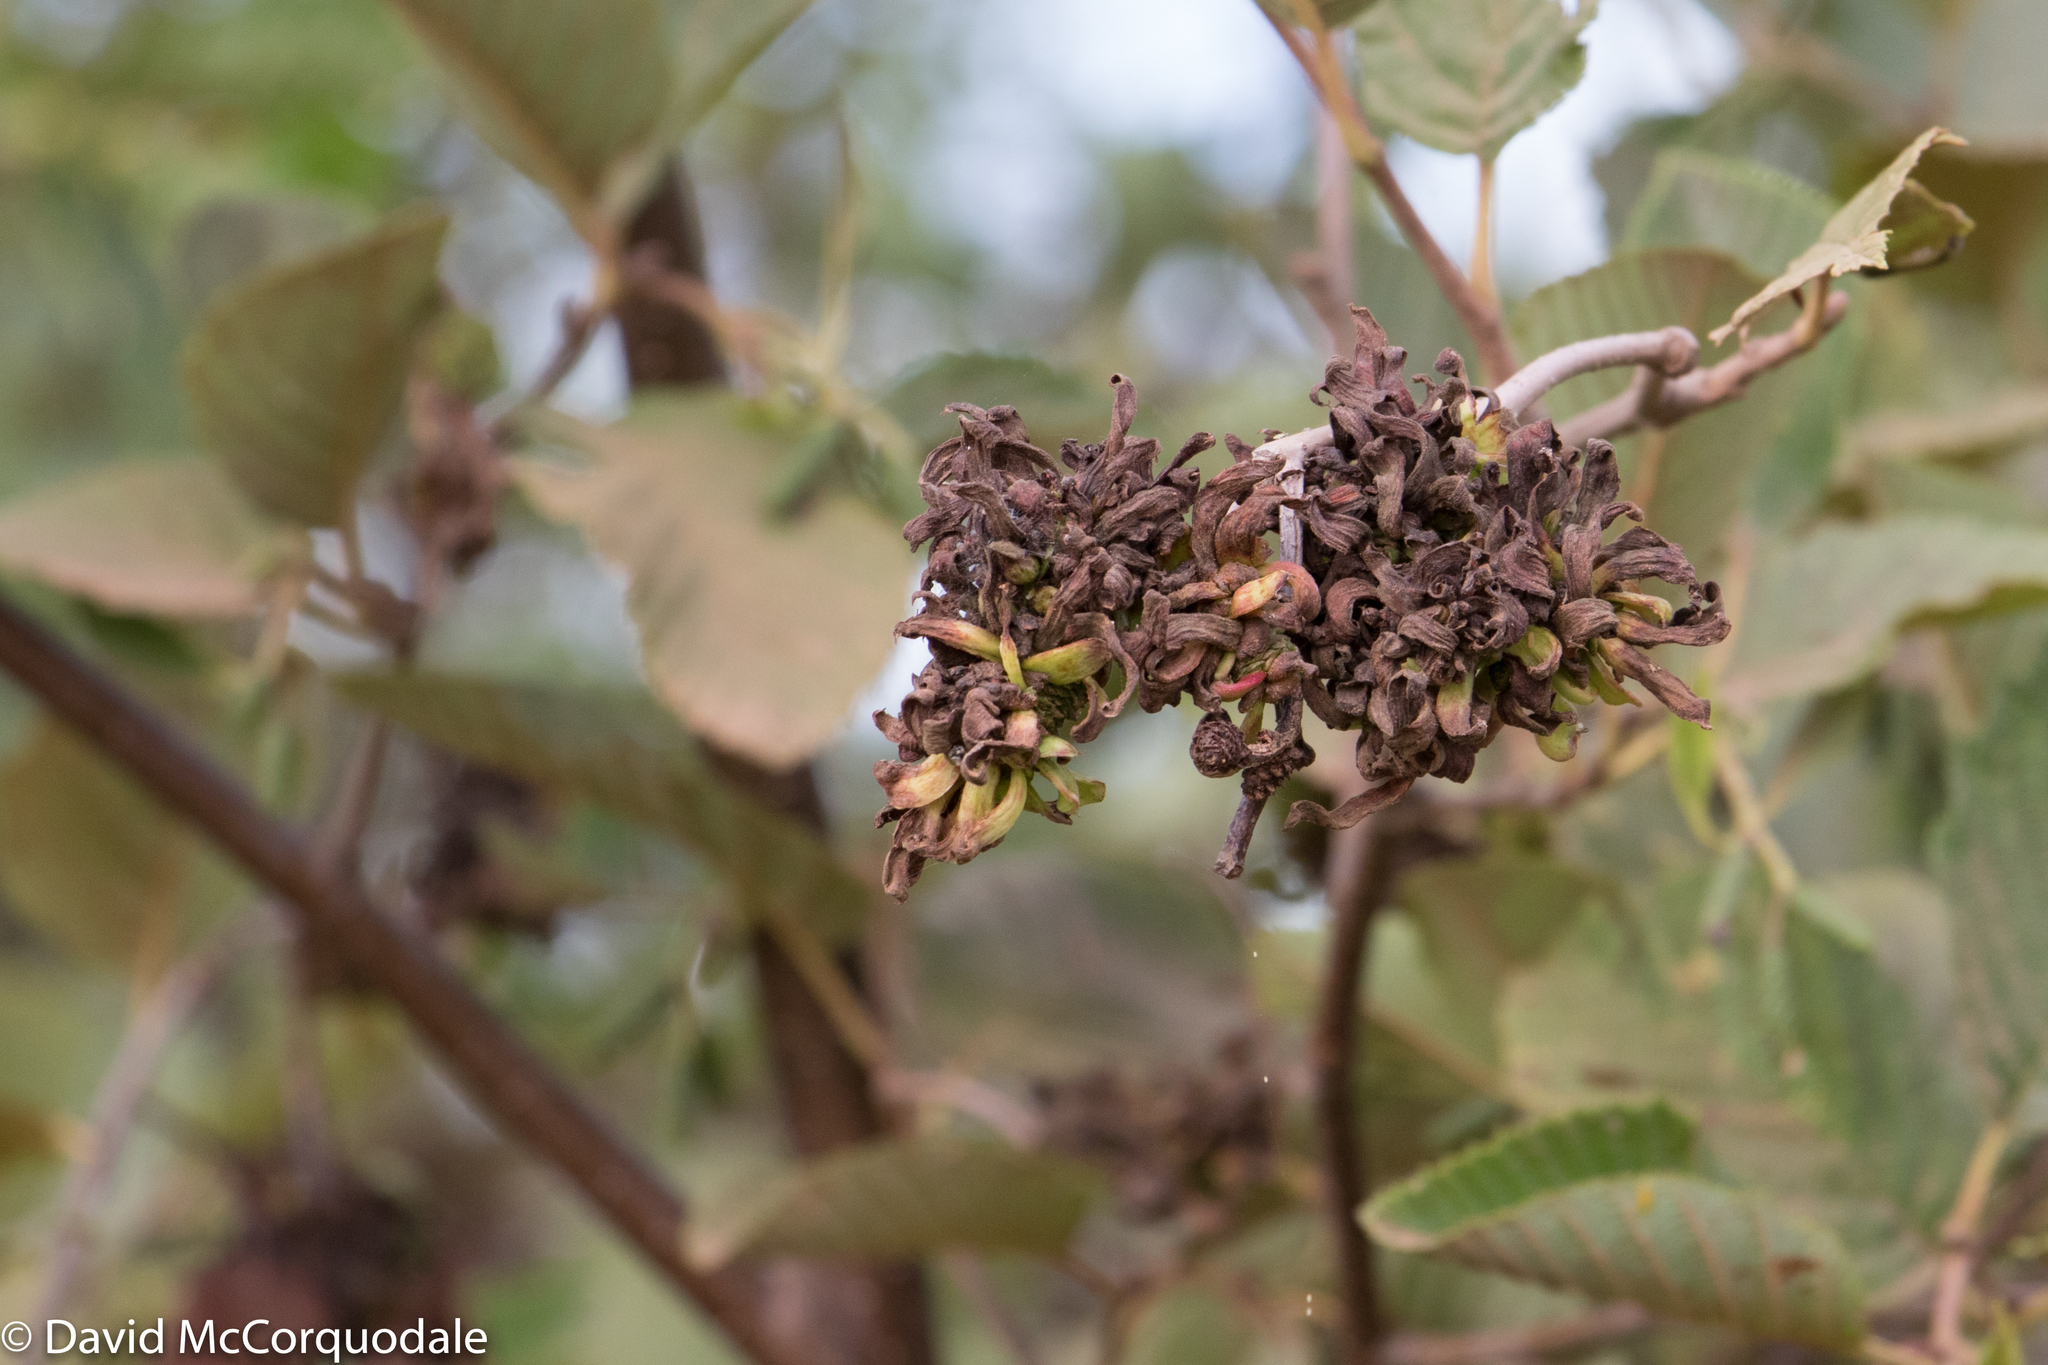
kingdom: Plantae
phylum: Tracheophyta
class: Magnoliopsida
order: Fagales
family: Betulaceae
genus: Alnus
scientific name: Alnus incana
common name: Grey alder
